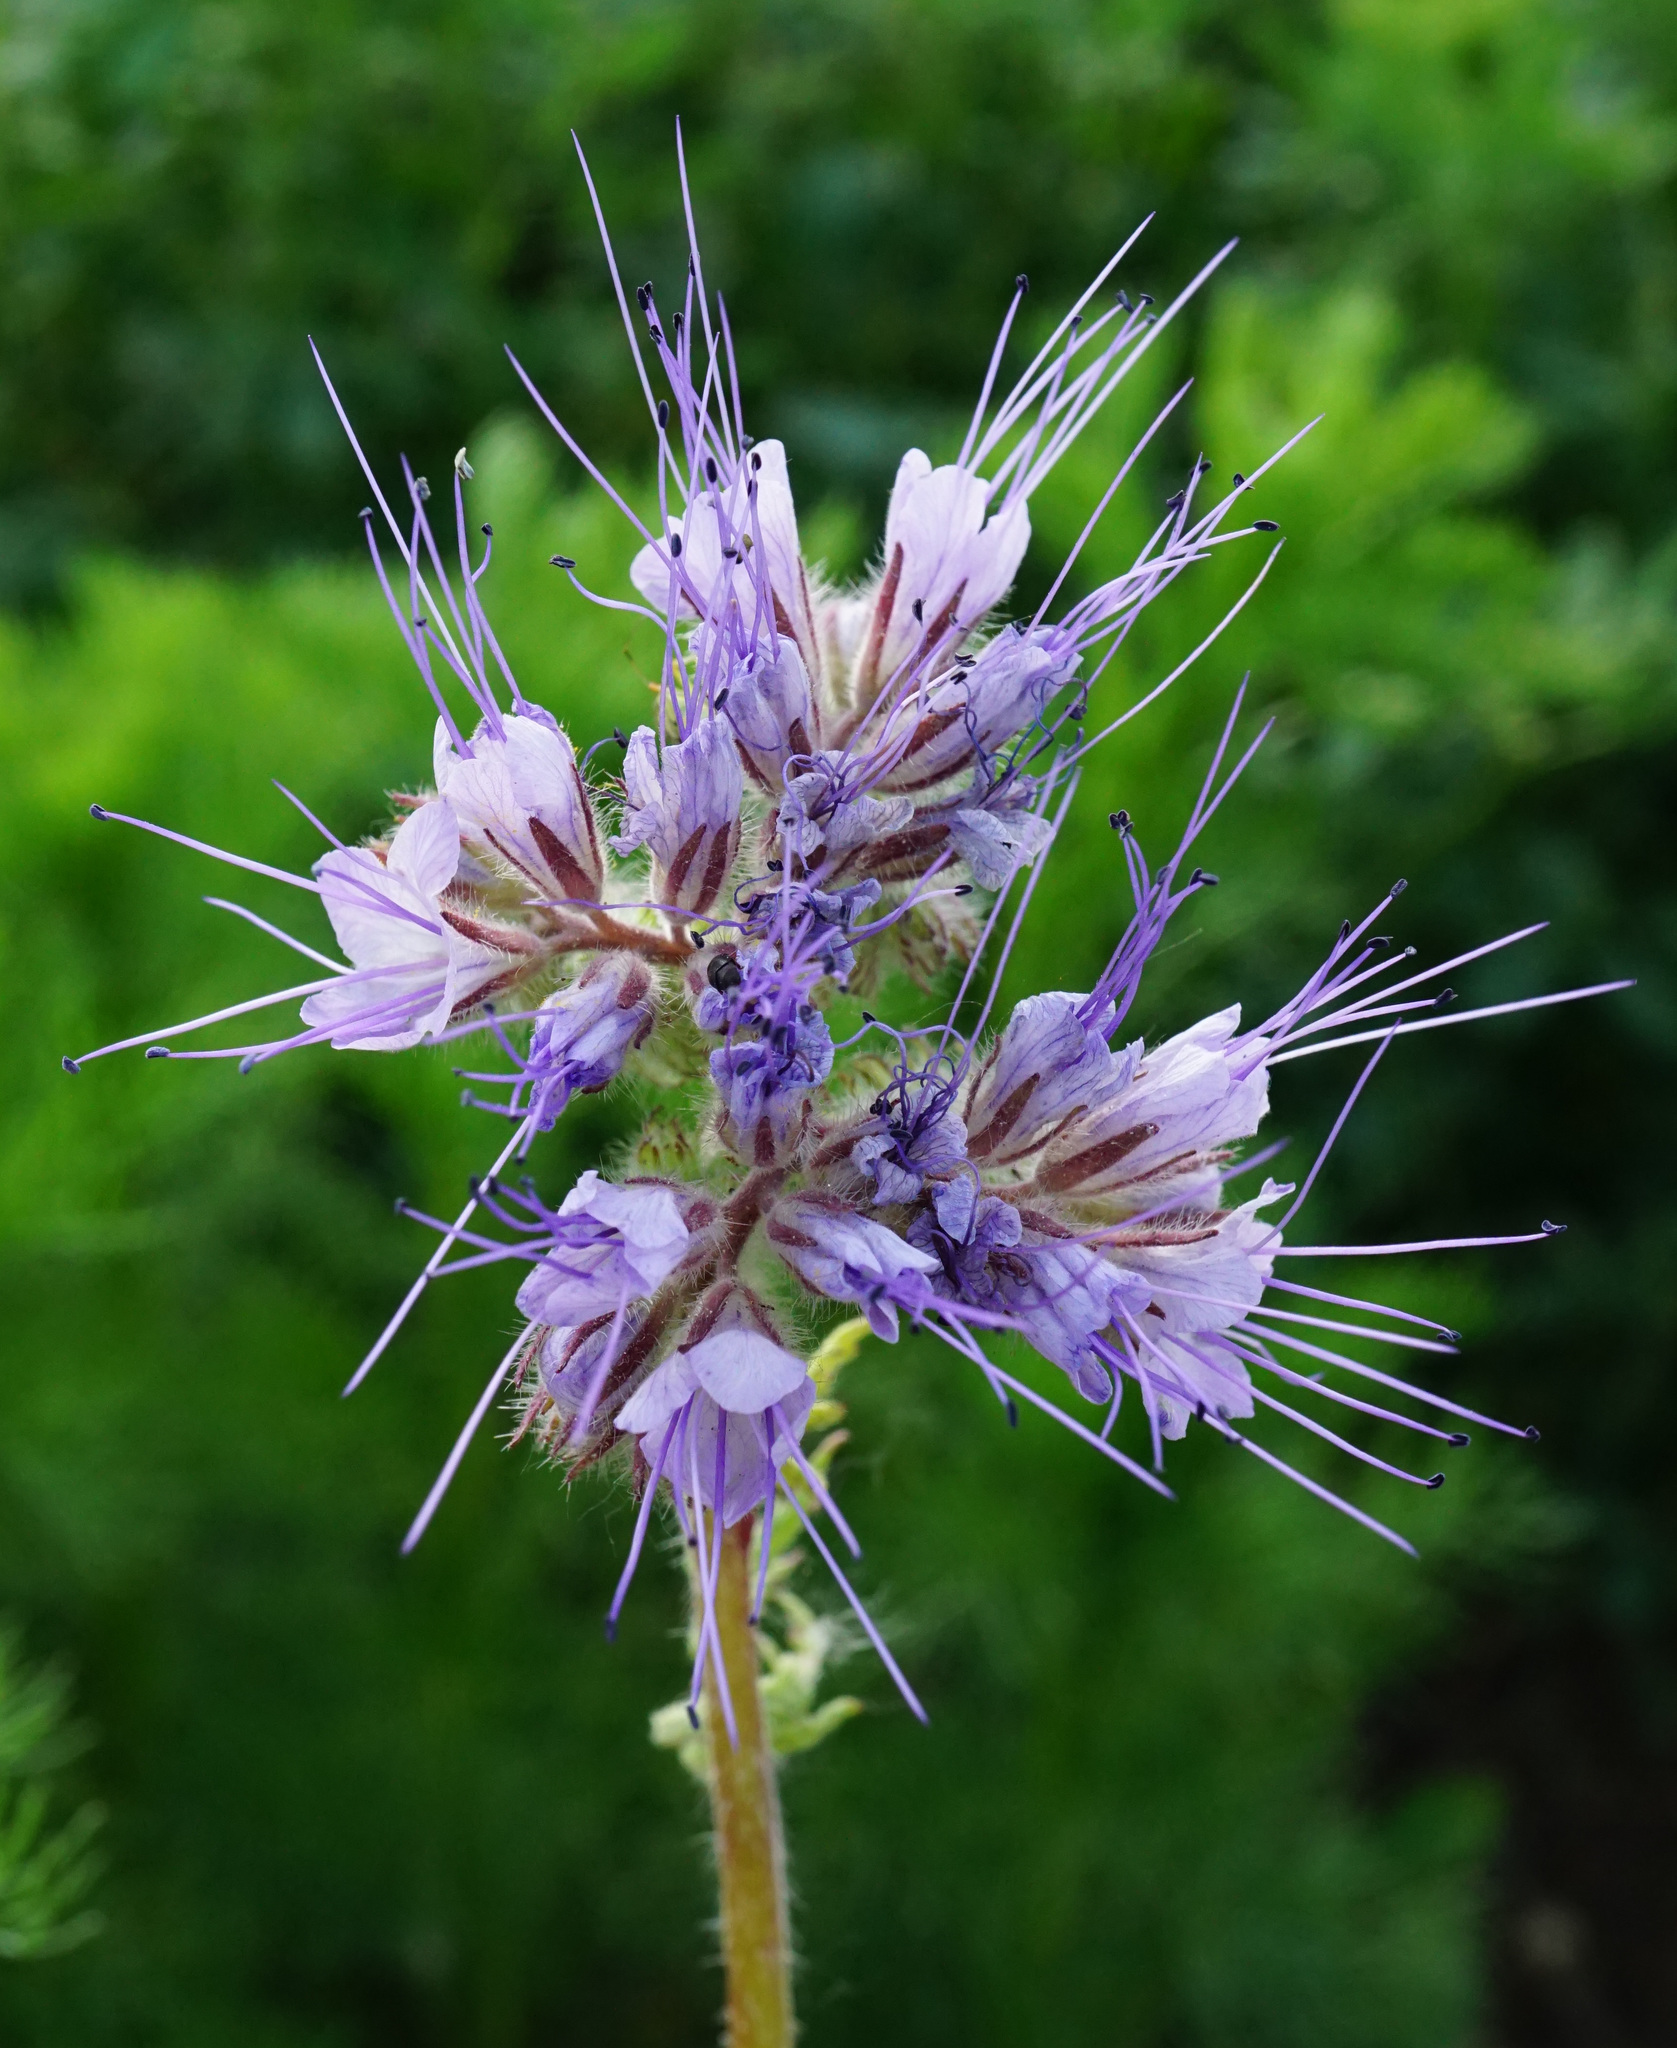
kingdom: Plantae
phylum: Tracheophyta
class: Magnoliopsida
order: Boraginales
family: Hydrophyllaceae
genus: Phacelia
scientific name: Phacelia tanacetifolia
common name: Phacelia
